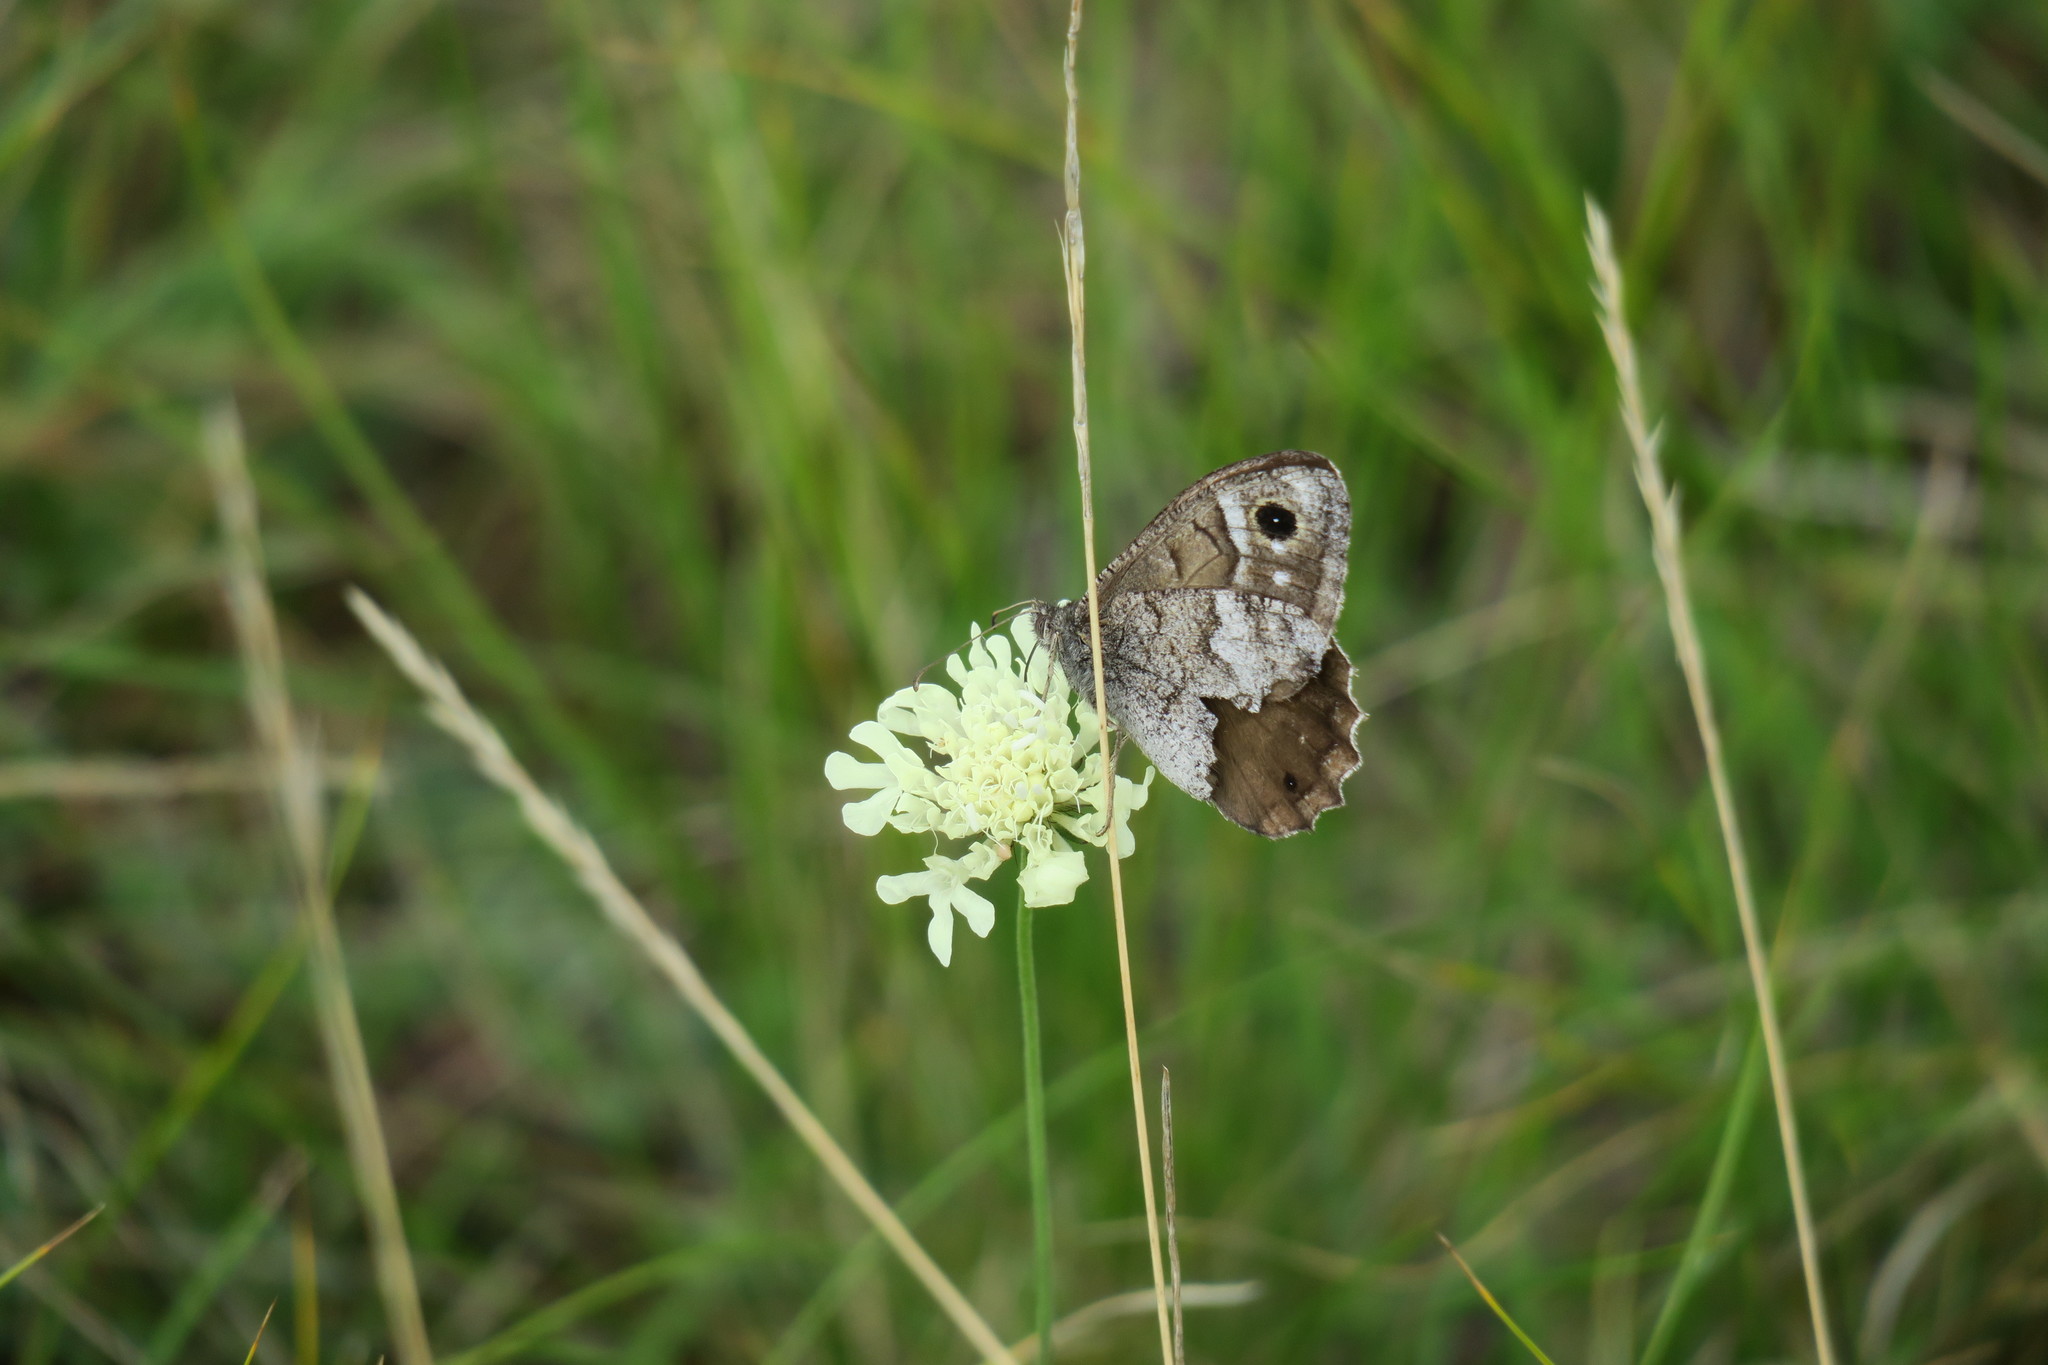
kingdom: Animalia
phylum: Arthropoda
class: Insecta
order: Lepidoptera
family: Nymphalidae
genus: Hipparchia
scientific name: Hipparchia statilinus
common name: Tree grayling
